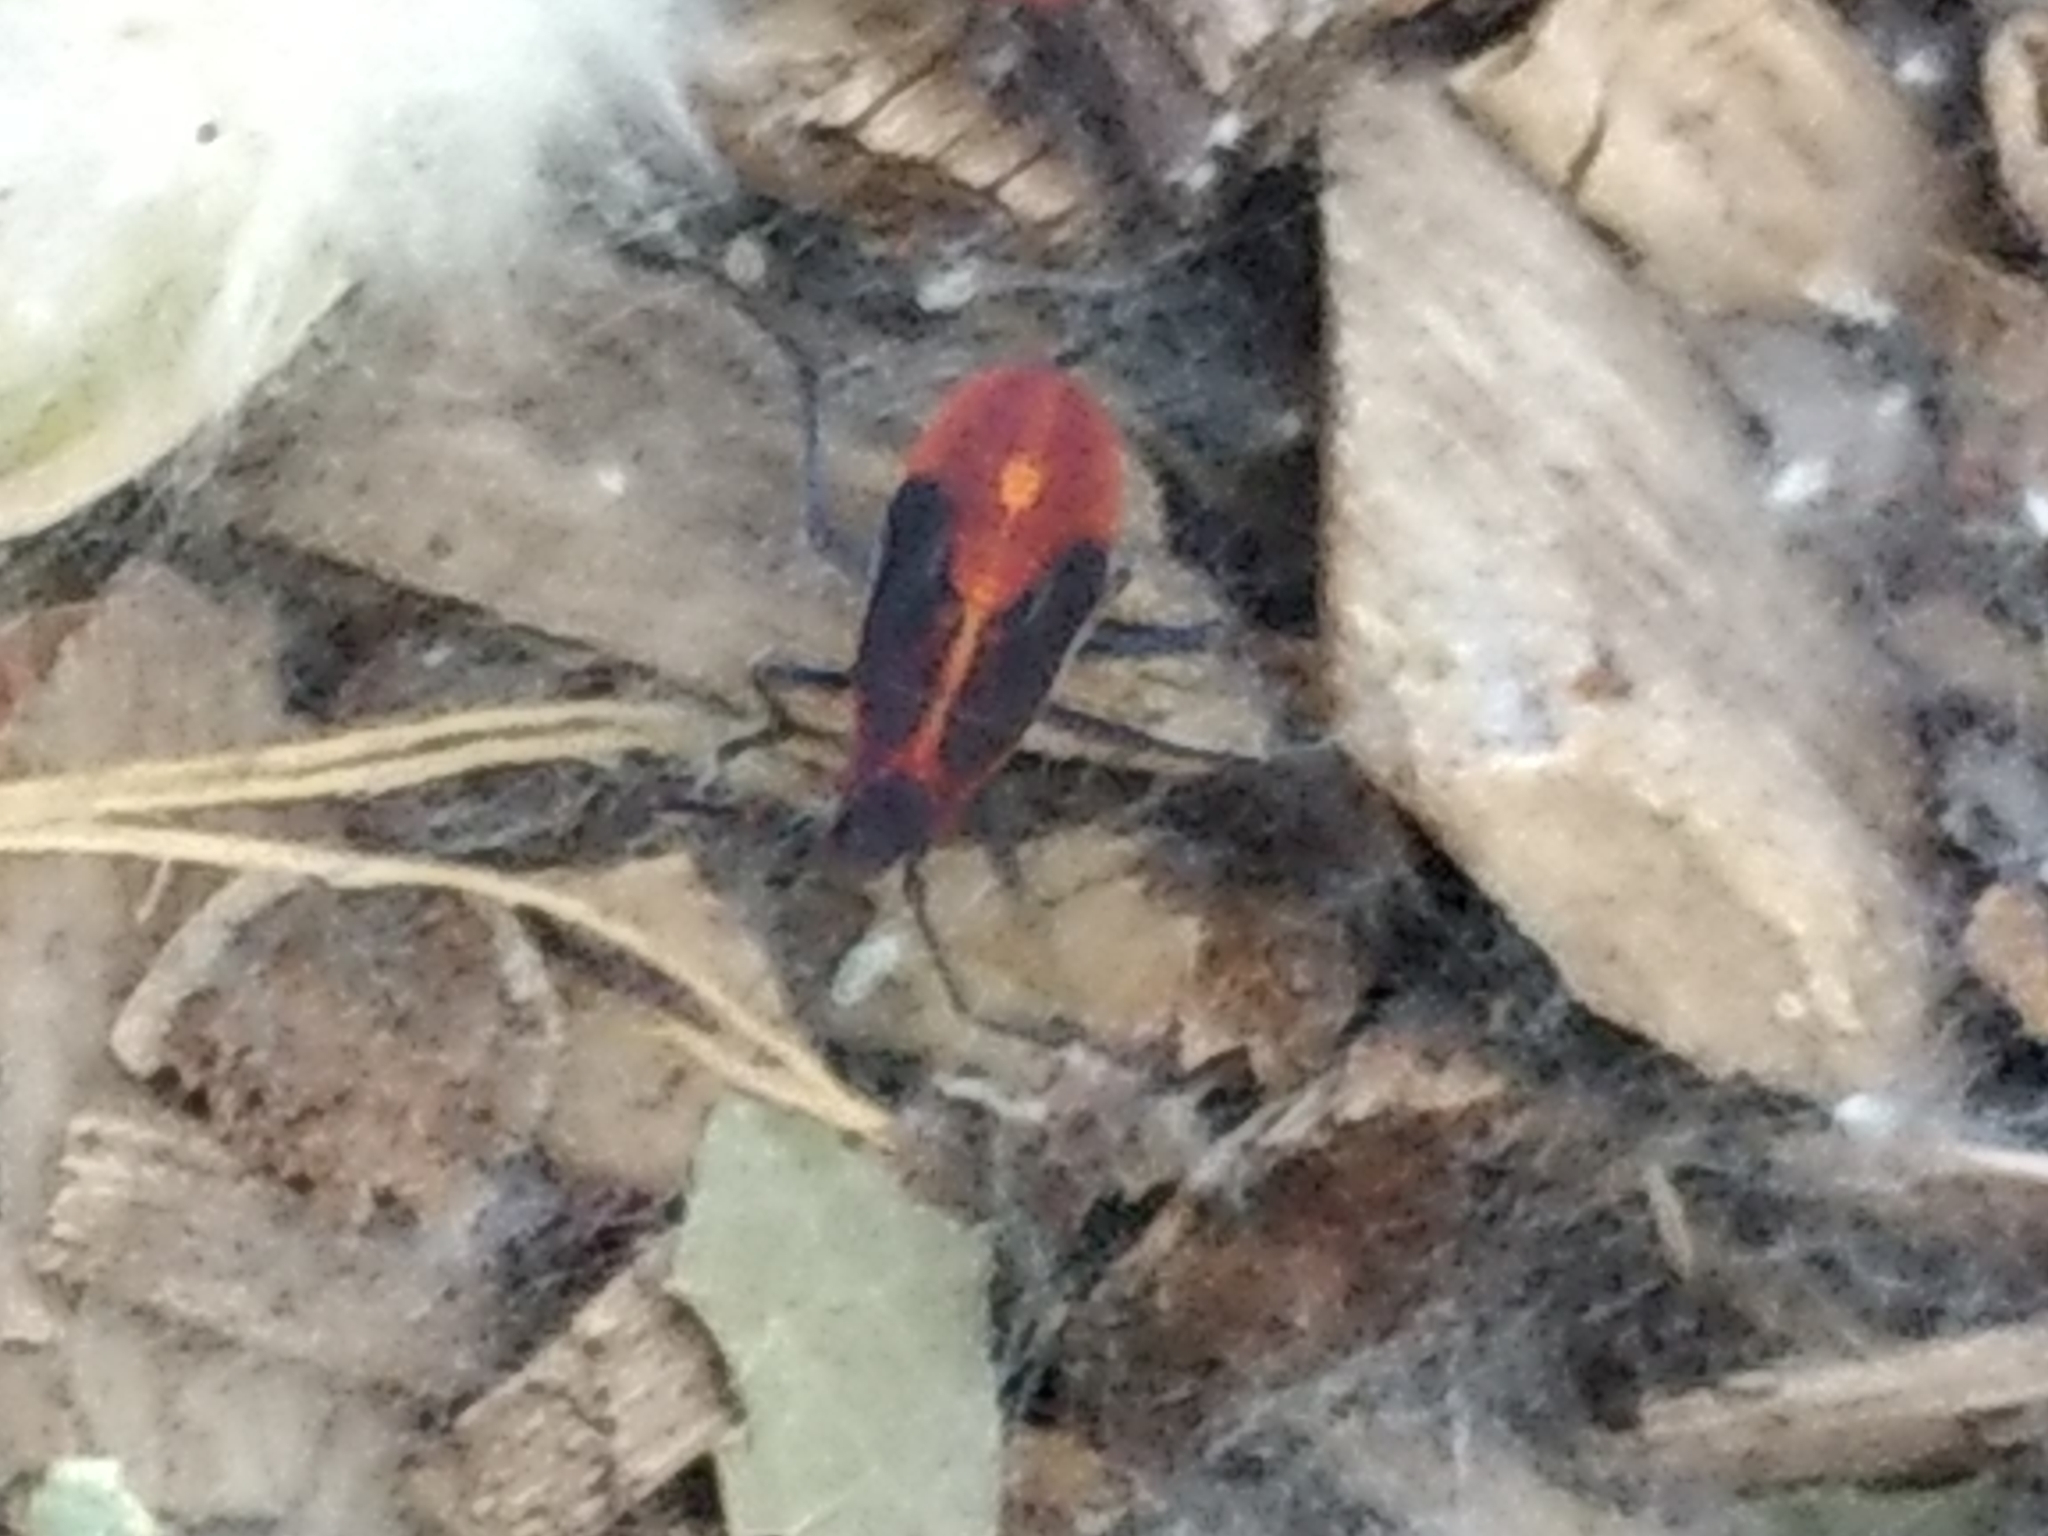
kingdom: Animalia
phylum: Arthropoda
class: Insecta
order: Hemiptera
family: Rhopalidae
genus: Boisea
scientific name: Boisea
